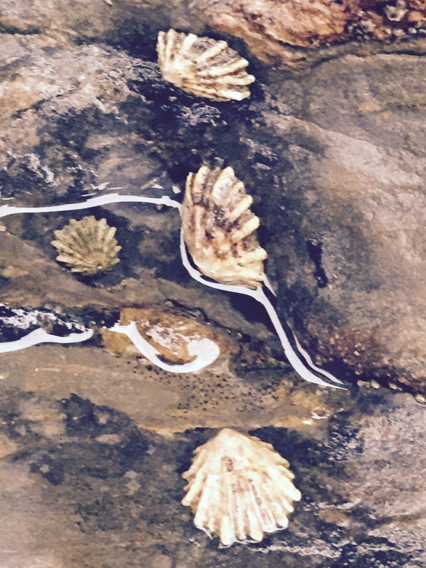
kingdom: Animalia
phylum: Mollusca
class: Gastropoda
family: Lottiidae
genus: Lottia
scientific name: Lottia scabra
